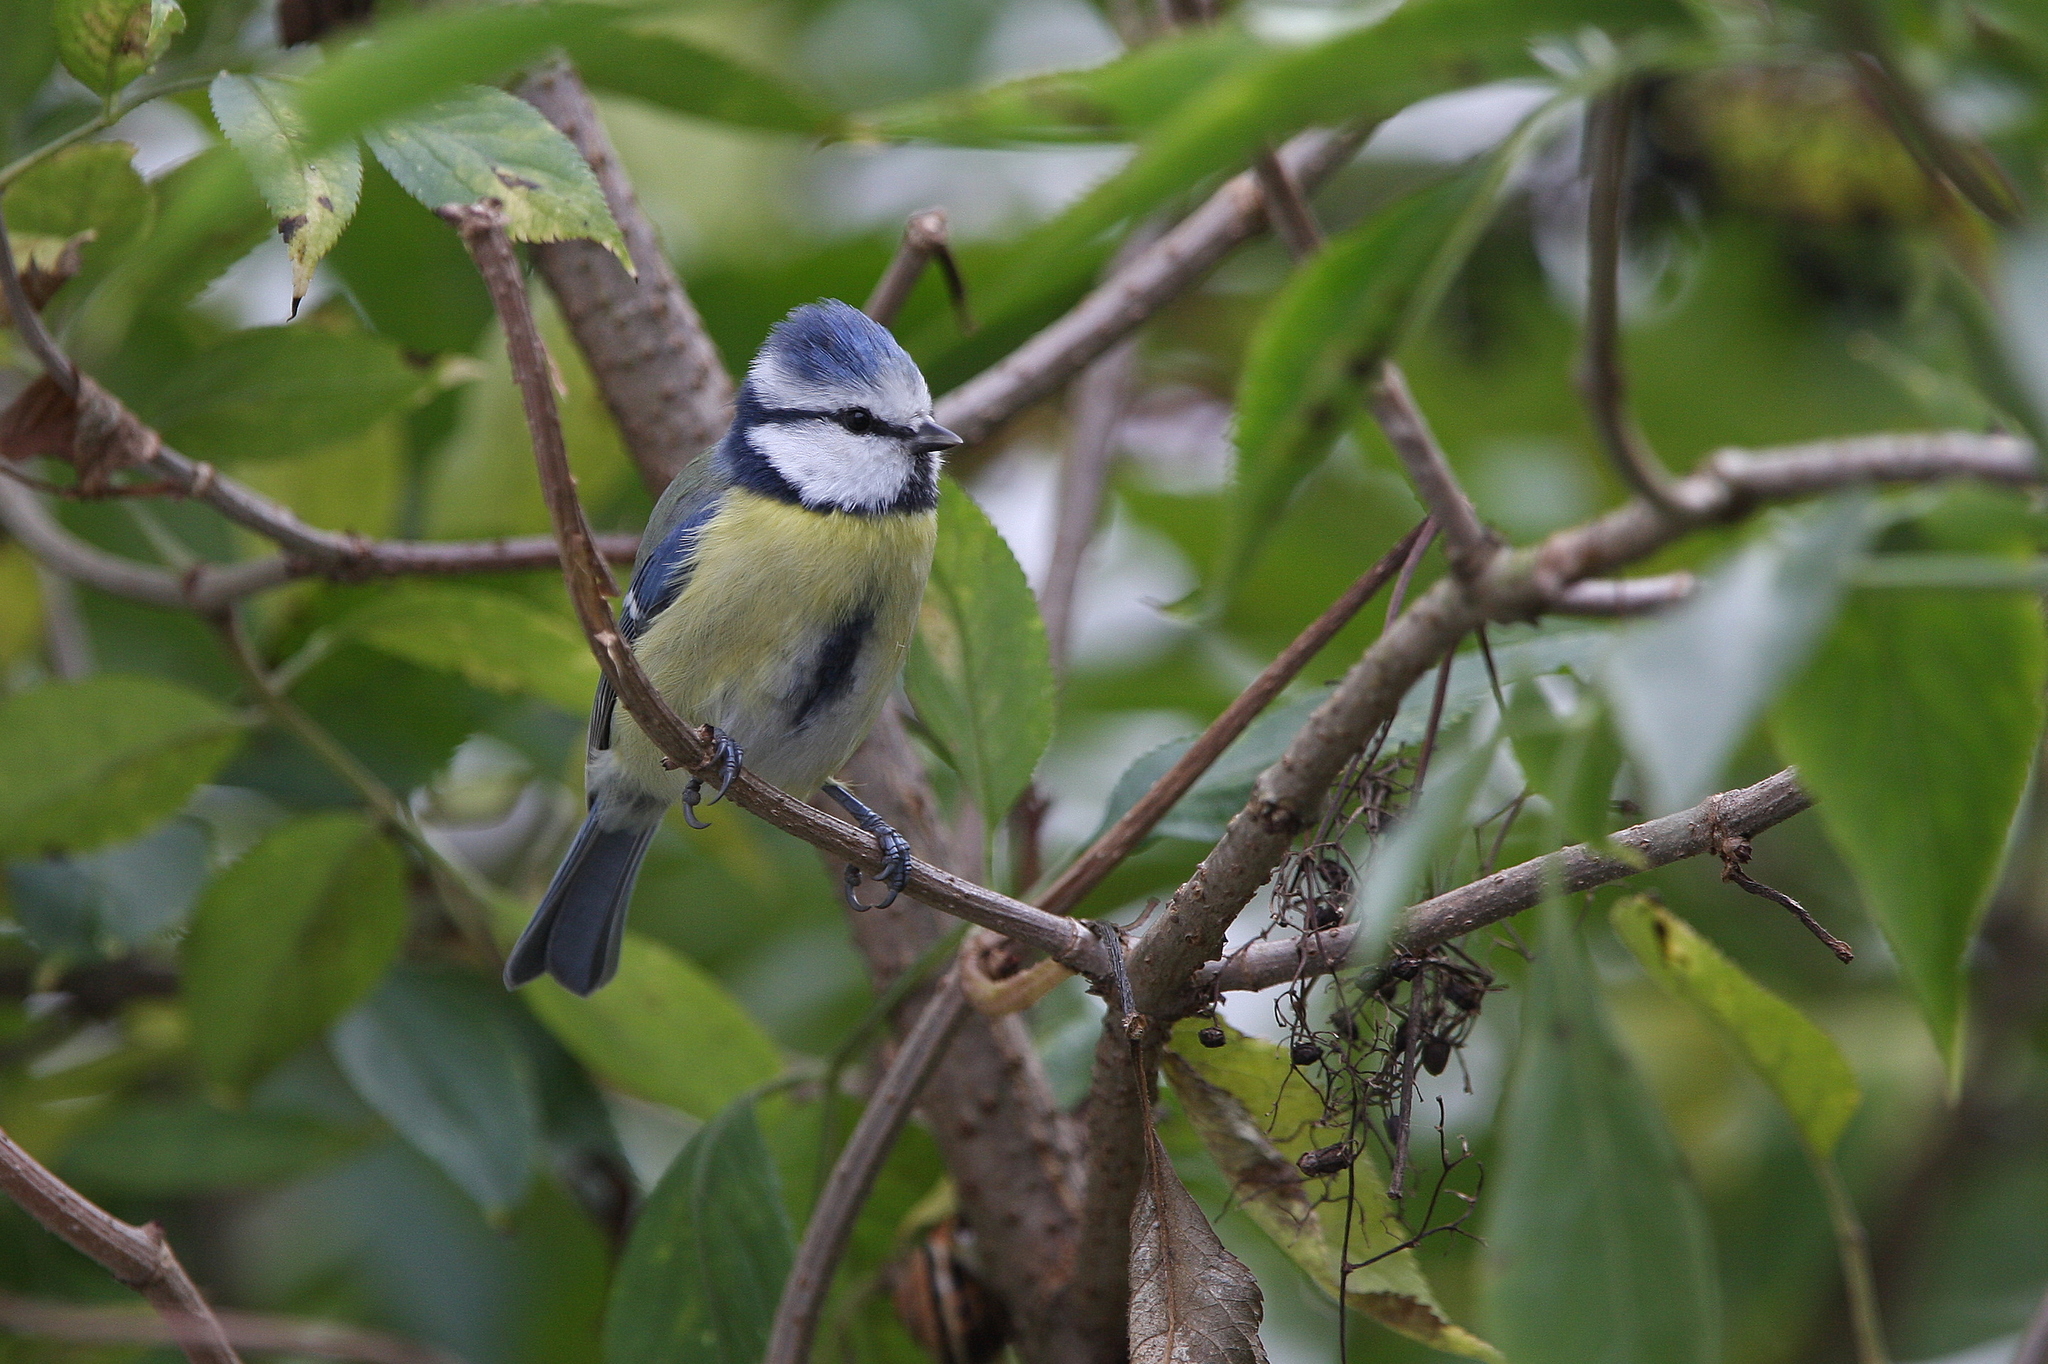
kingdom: Animalia
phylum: Chordata
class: Aves
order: Passeriformes
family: Paridae
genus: Cyanistes
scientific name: Cyanistes caeruleus
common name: Eurasian blue tit
